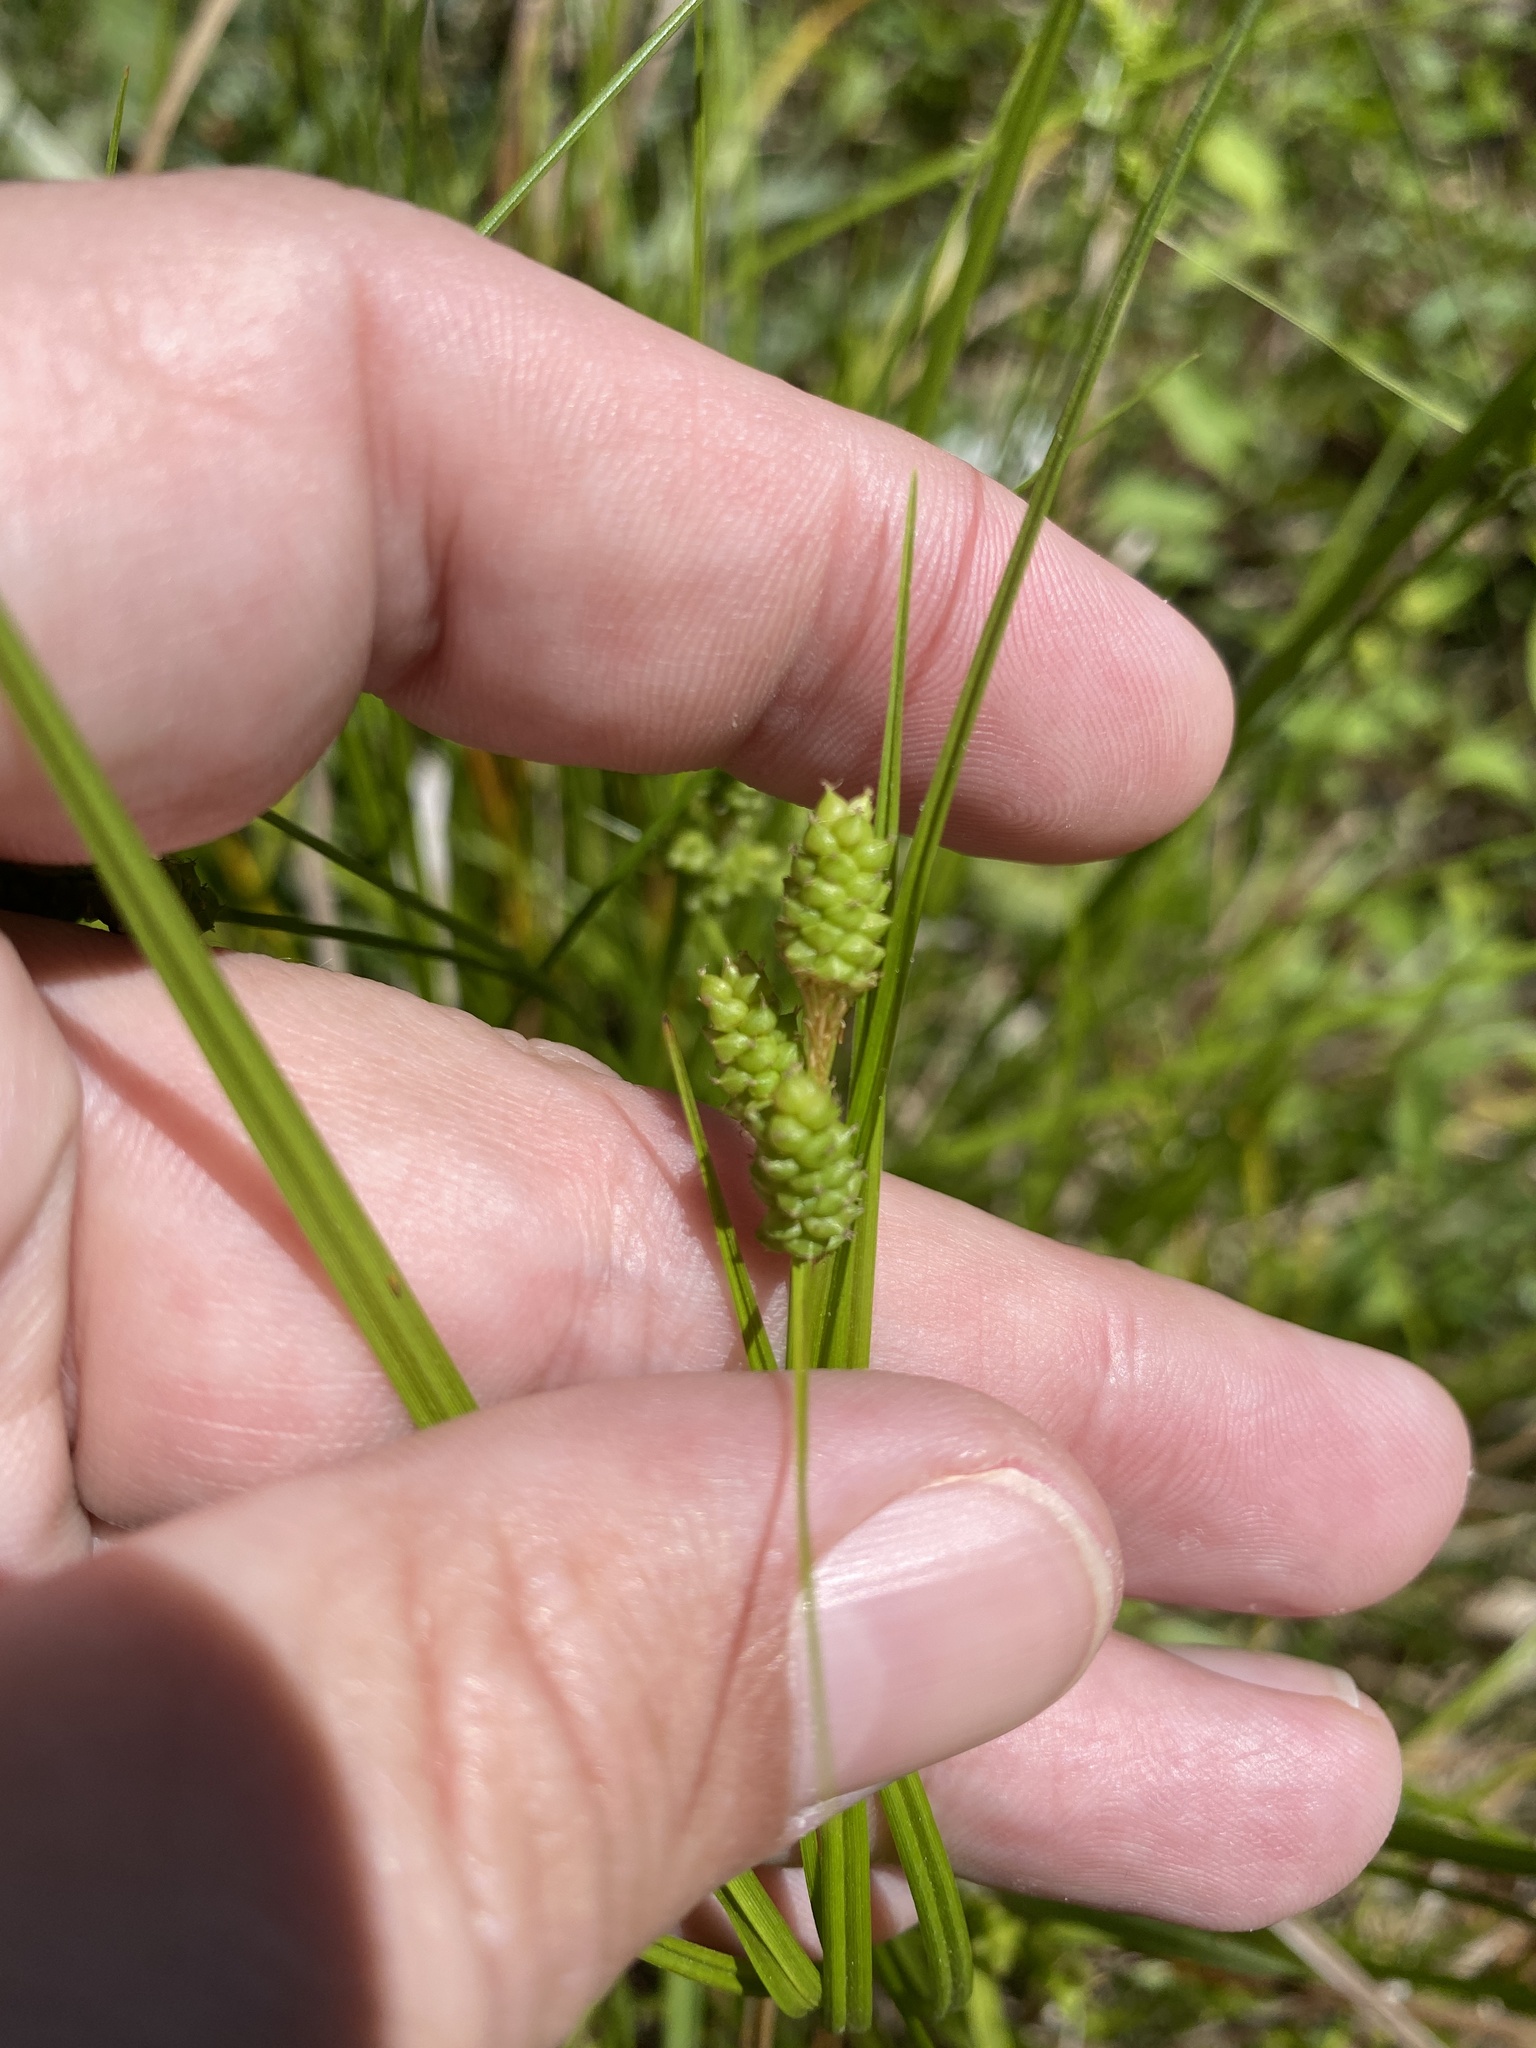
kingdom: Plantae
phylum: Tracheophyta
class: Liliopsida
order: Poales
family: Cyperaceae
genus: Carex
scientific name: Carex complanata
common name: Hirsute sedge
